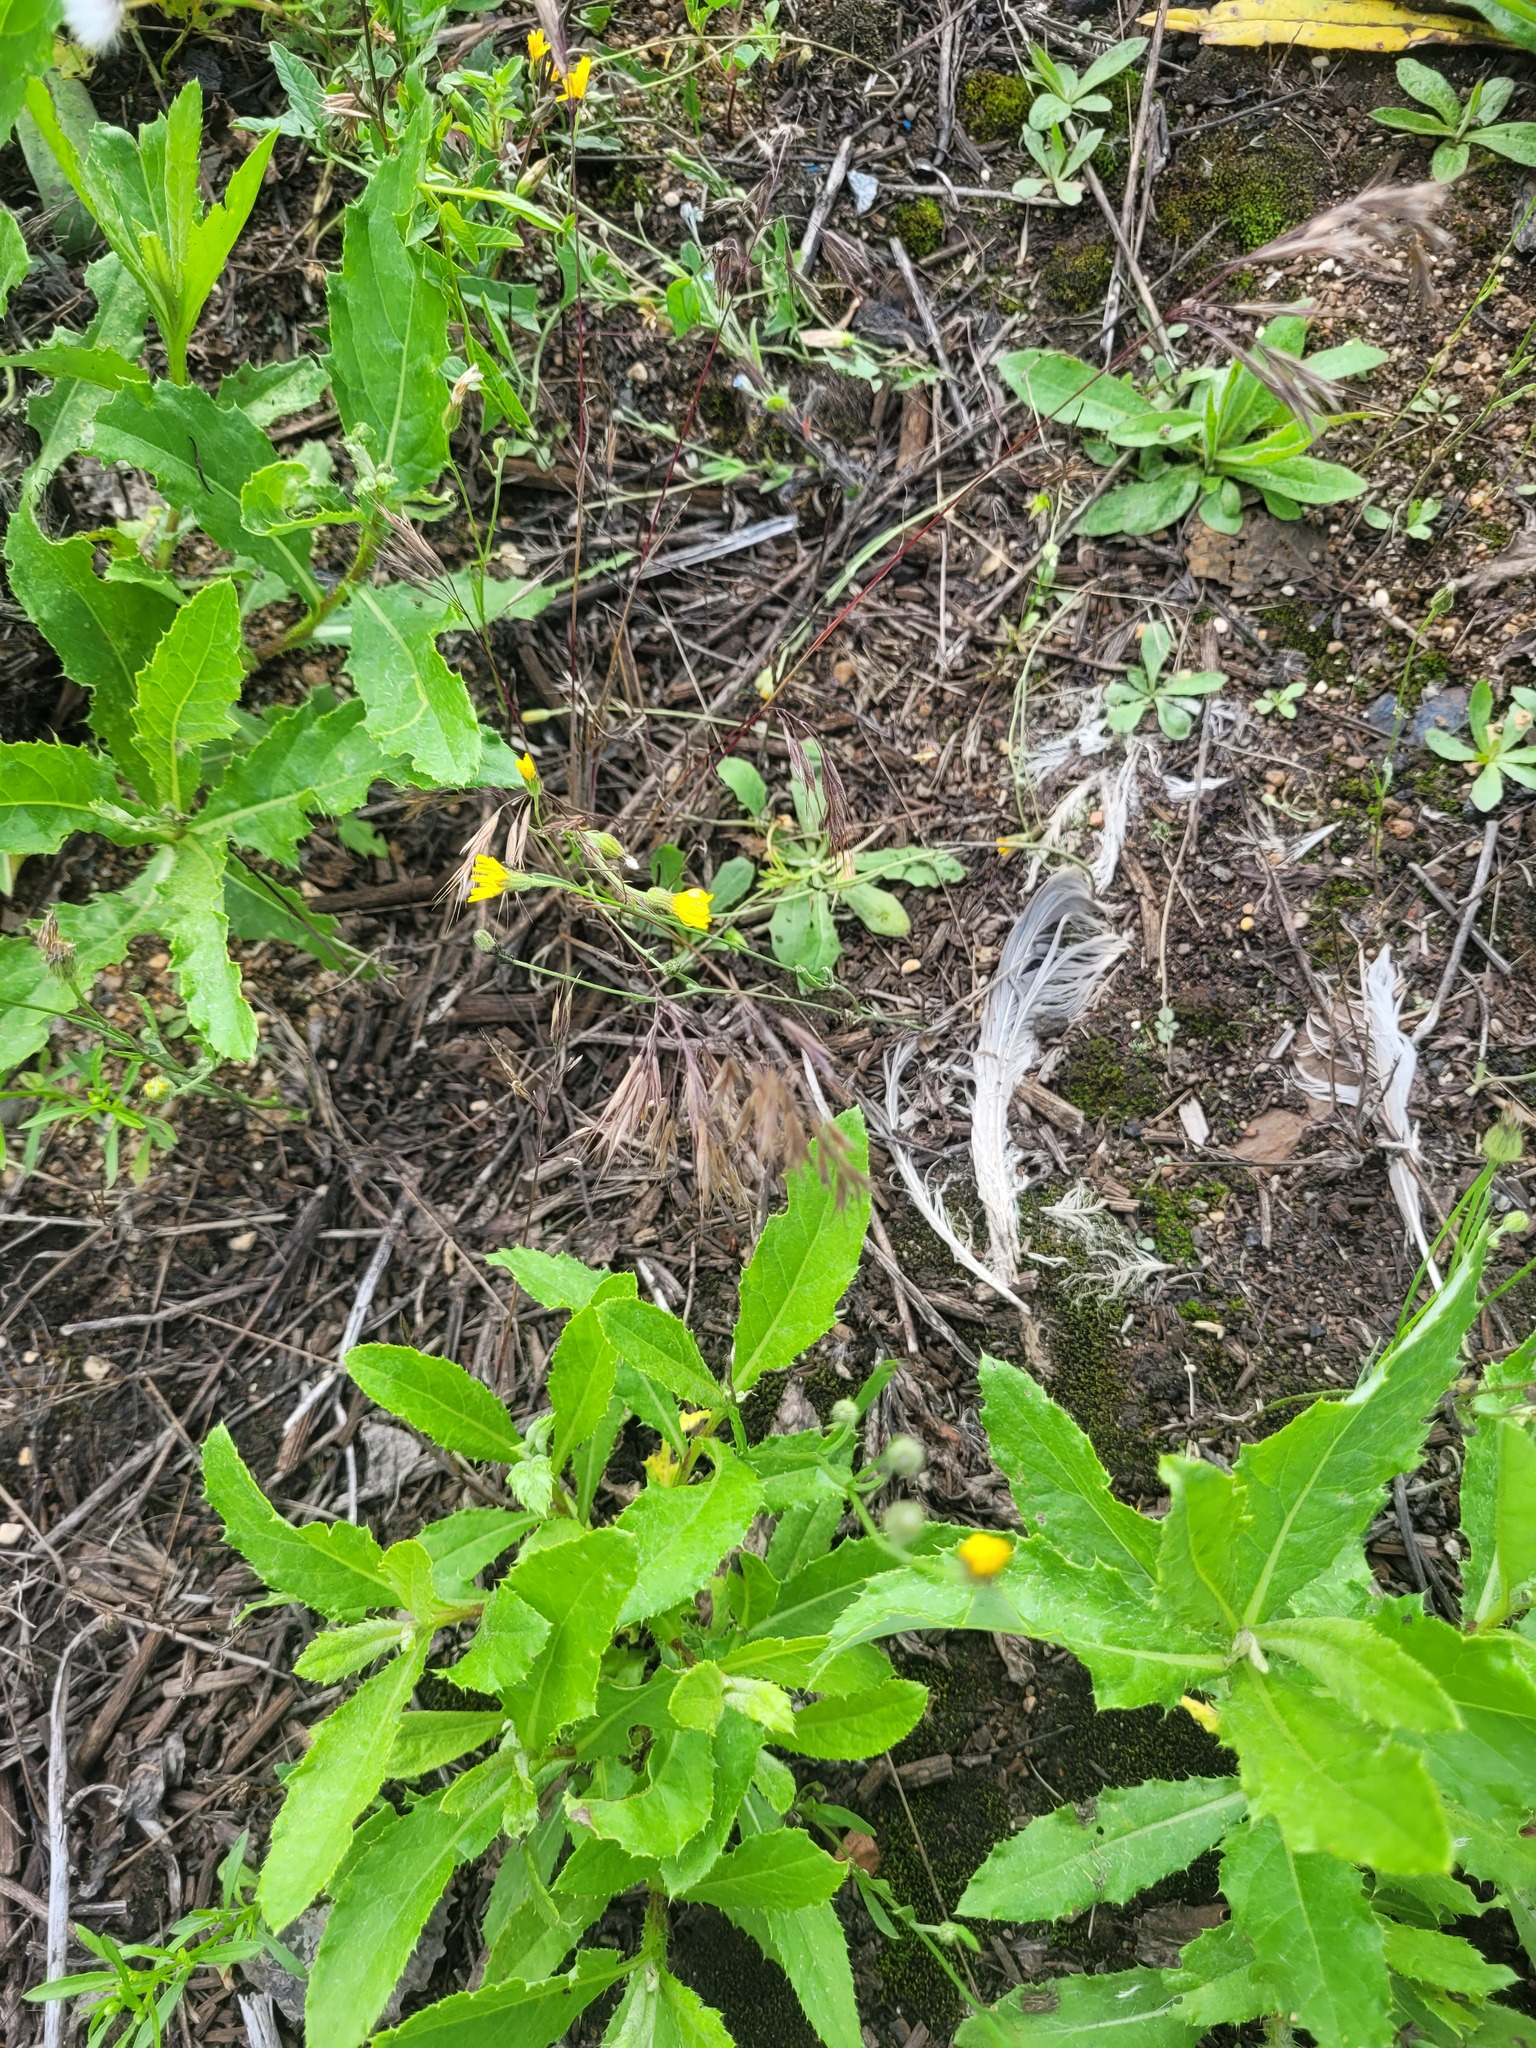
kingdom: Plantae
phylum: Tracheophyta
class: Magnoliopsida
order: Asterales
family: Asteraceae
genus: Crepis
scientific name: Crepis tectorum
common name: Narrow-leaved hawk's-beard
